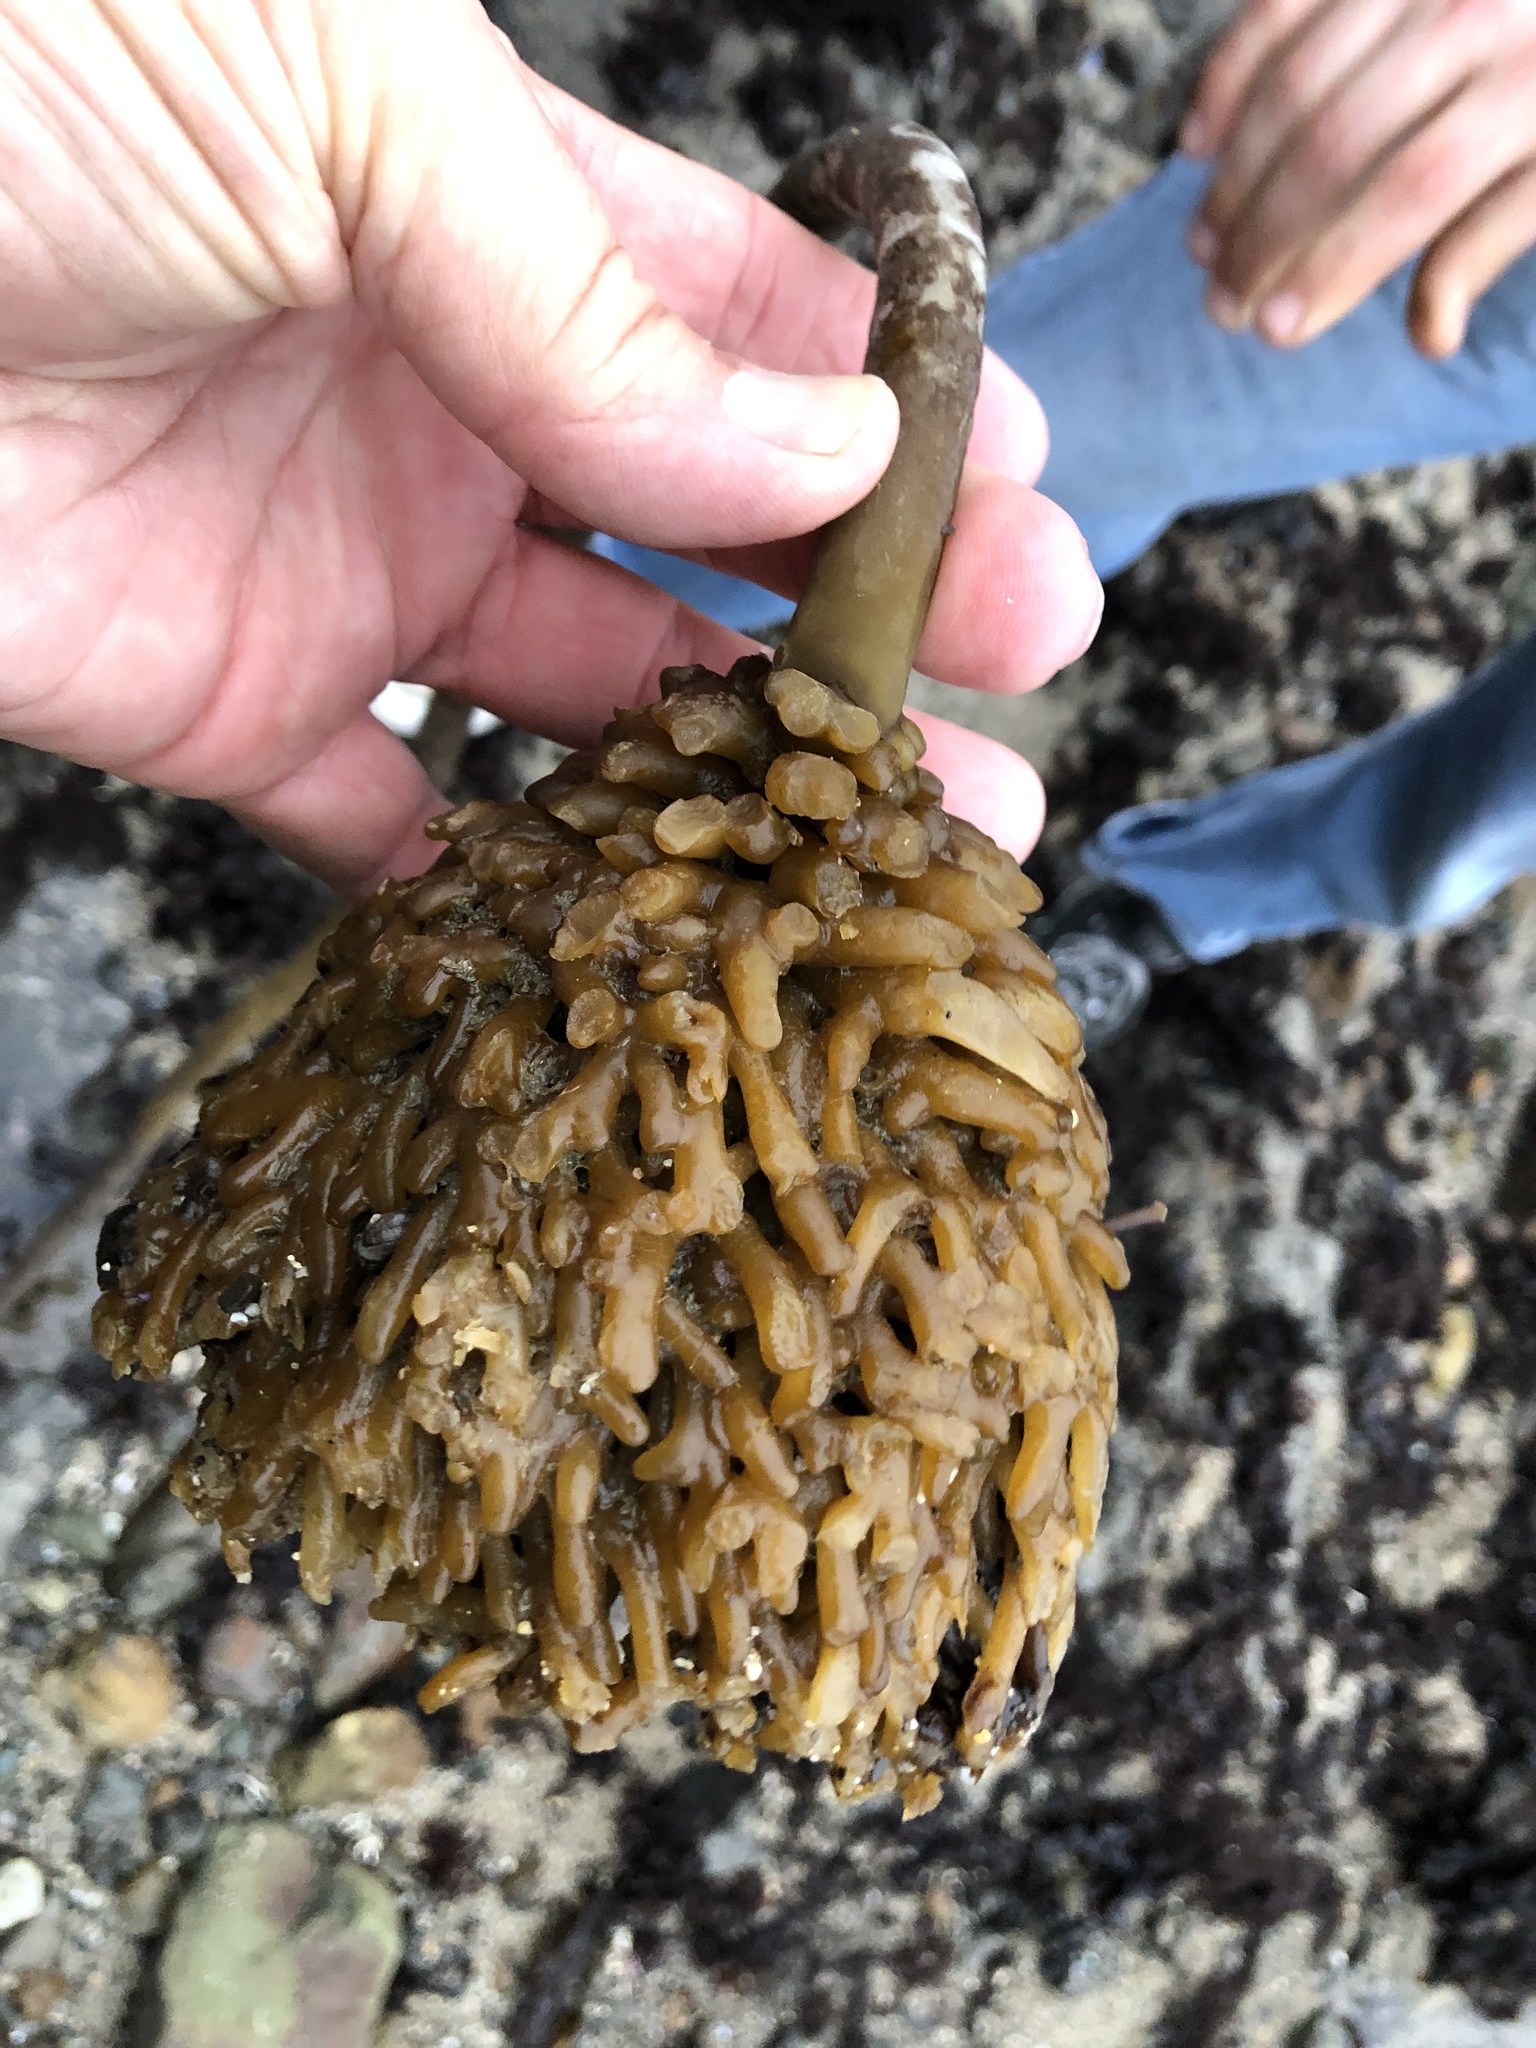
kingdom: Chromista
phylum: Ochrophyta
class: Phaeophyceae
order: Laminariales
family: Laminariaceae
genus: Nereocystis
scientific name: Nereocystis luetkeana
